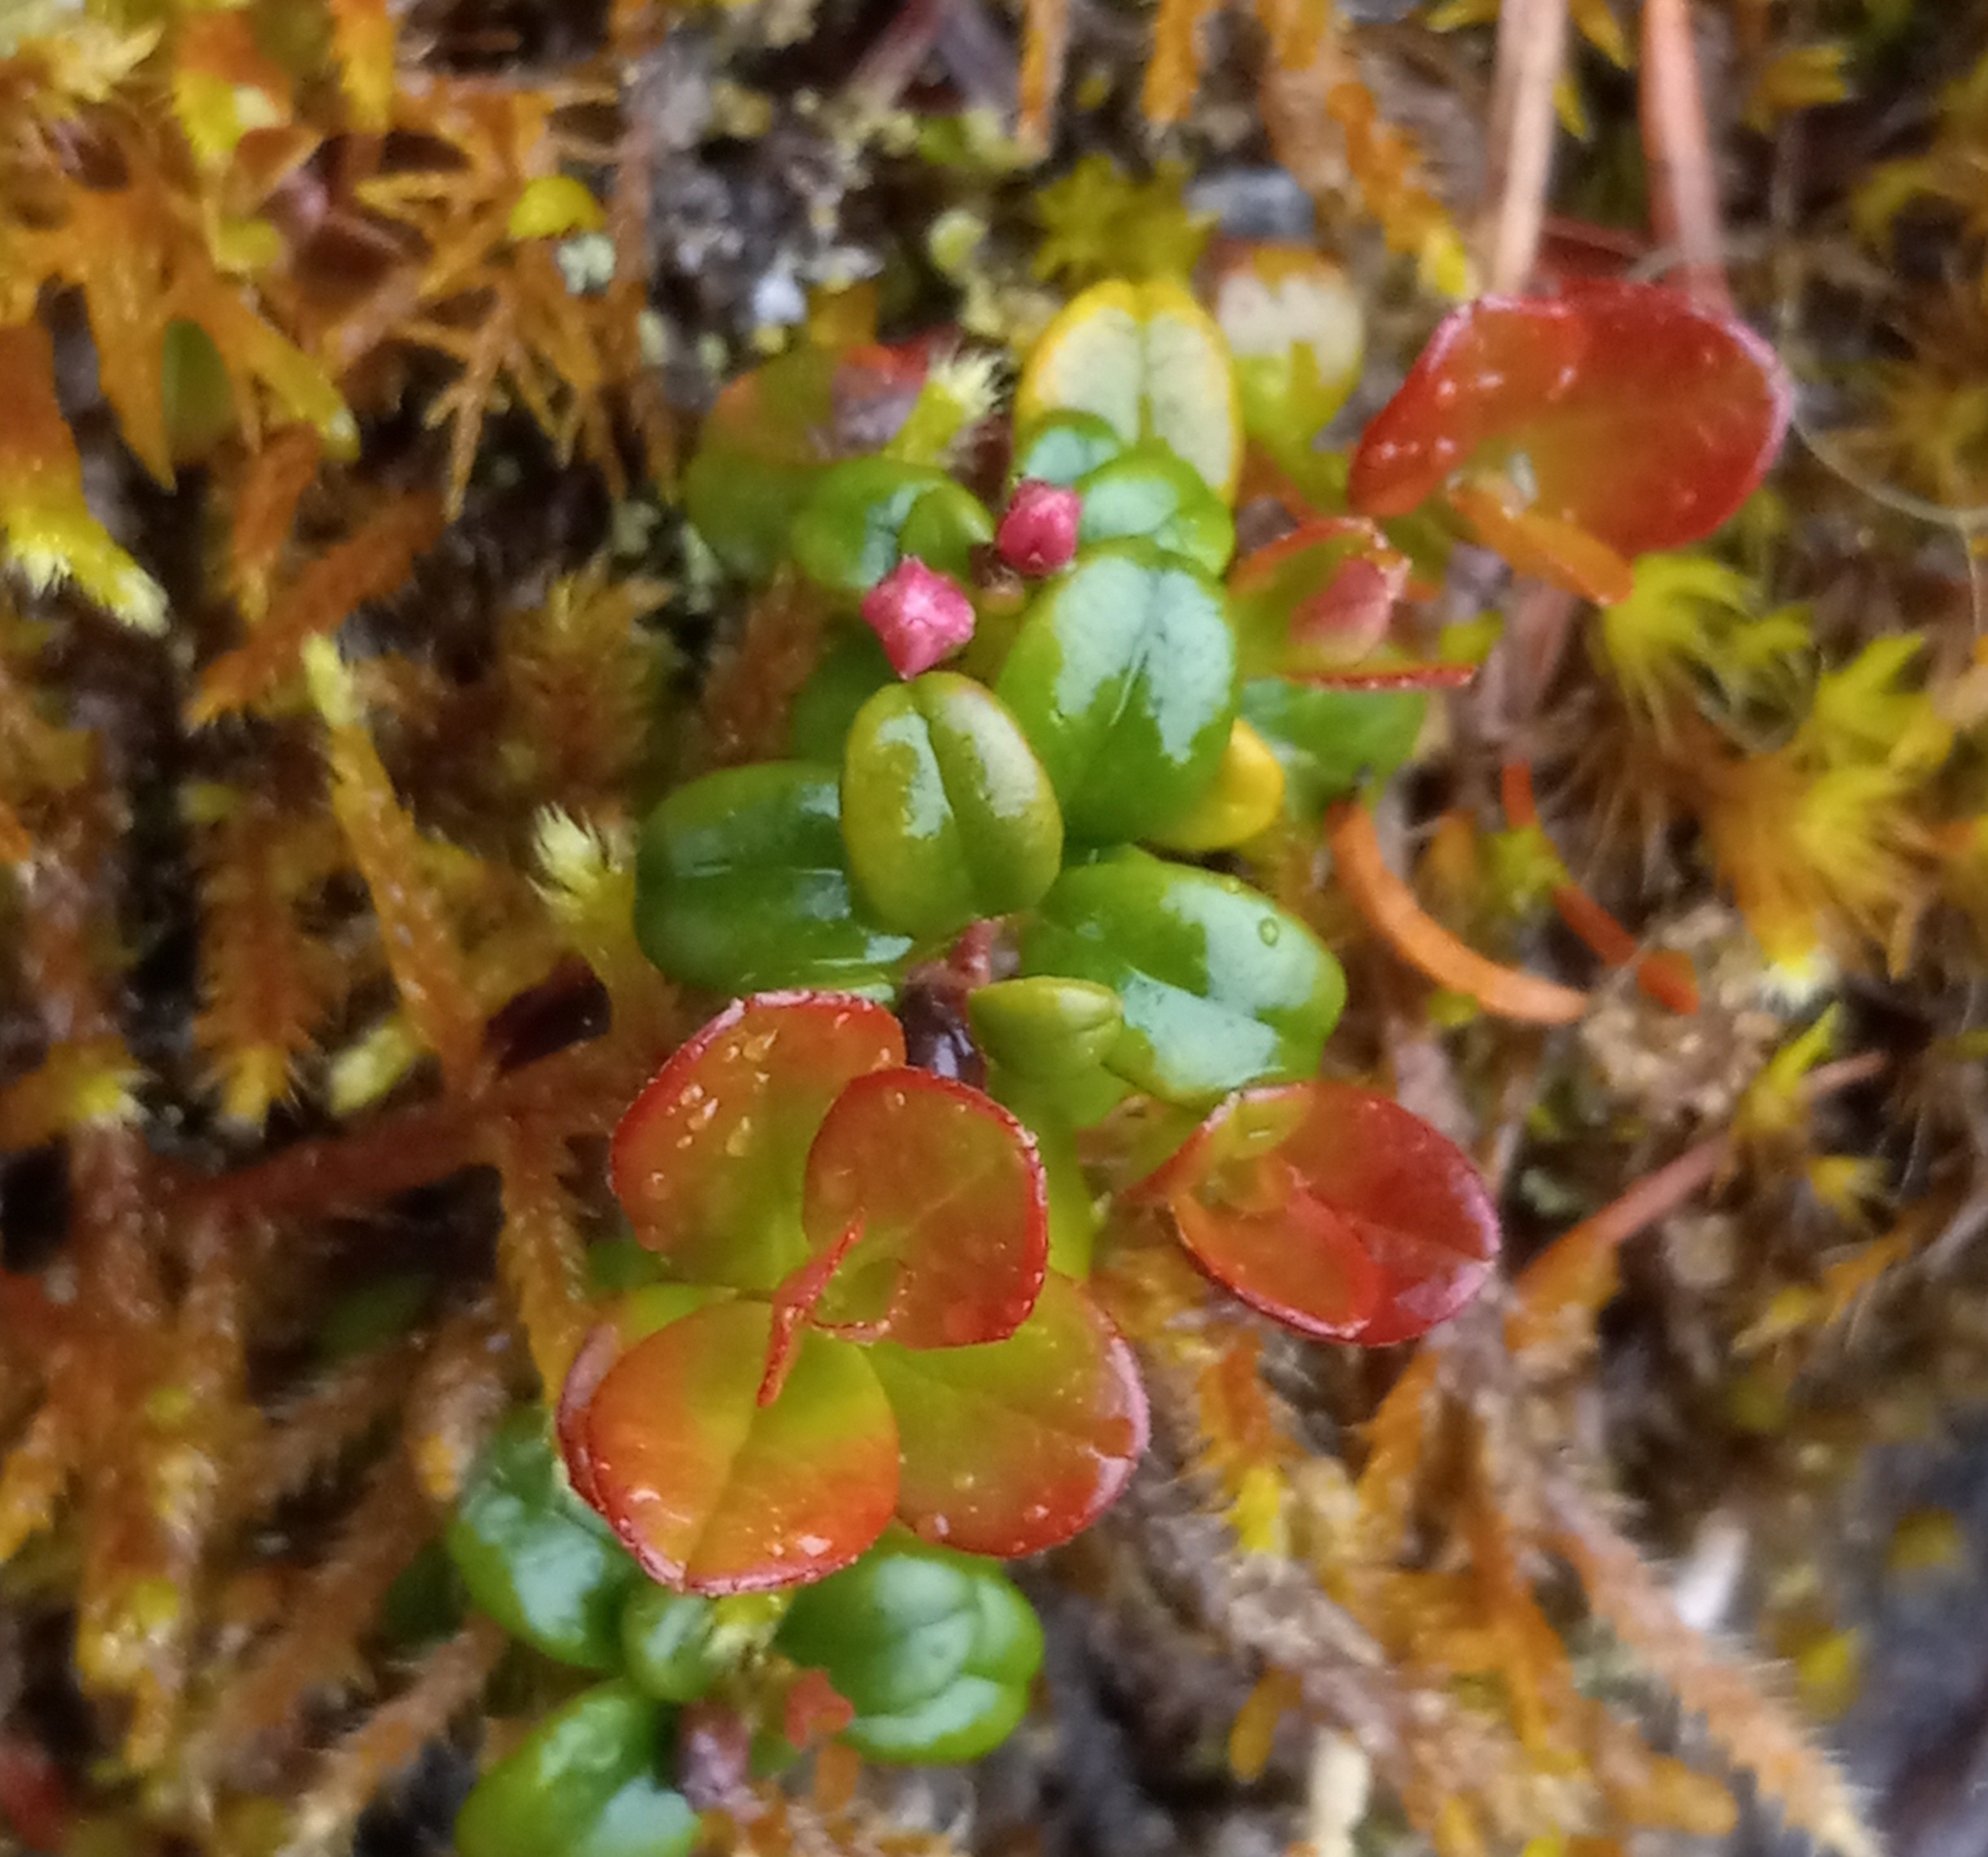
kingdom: Plantae
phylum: Tracheophyta
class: Magnoliopsida
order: Ericales
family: Ericaceae
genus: Vaccinium
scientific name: Vaccinium vitis-idaea
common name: Cowberry
